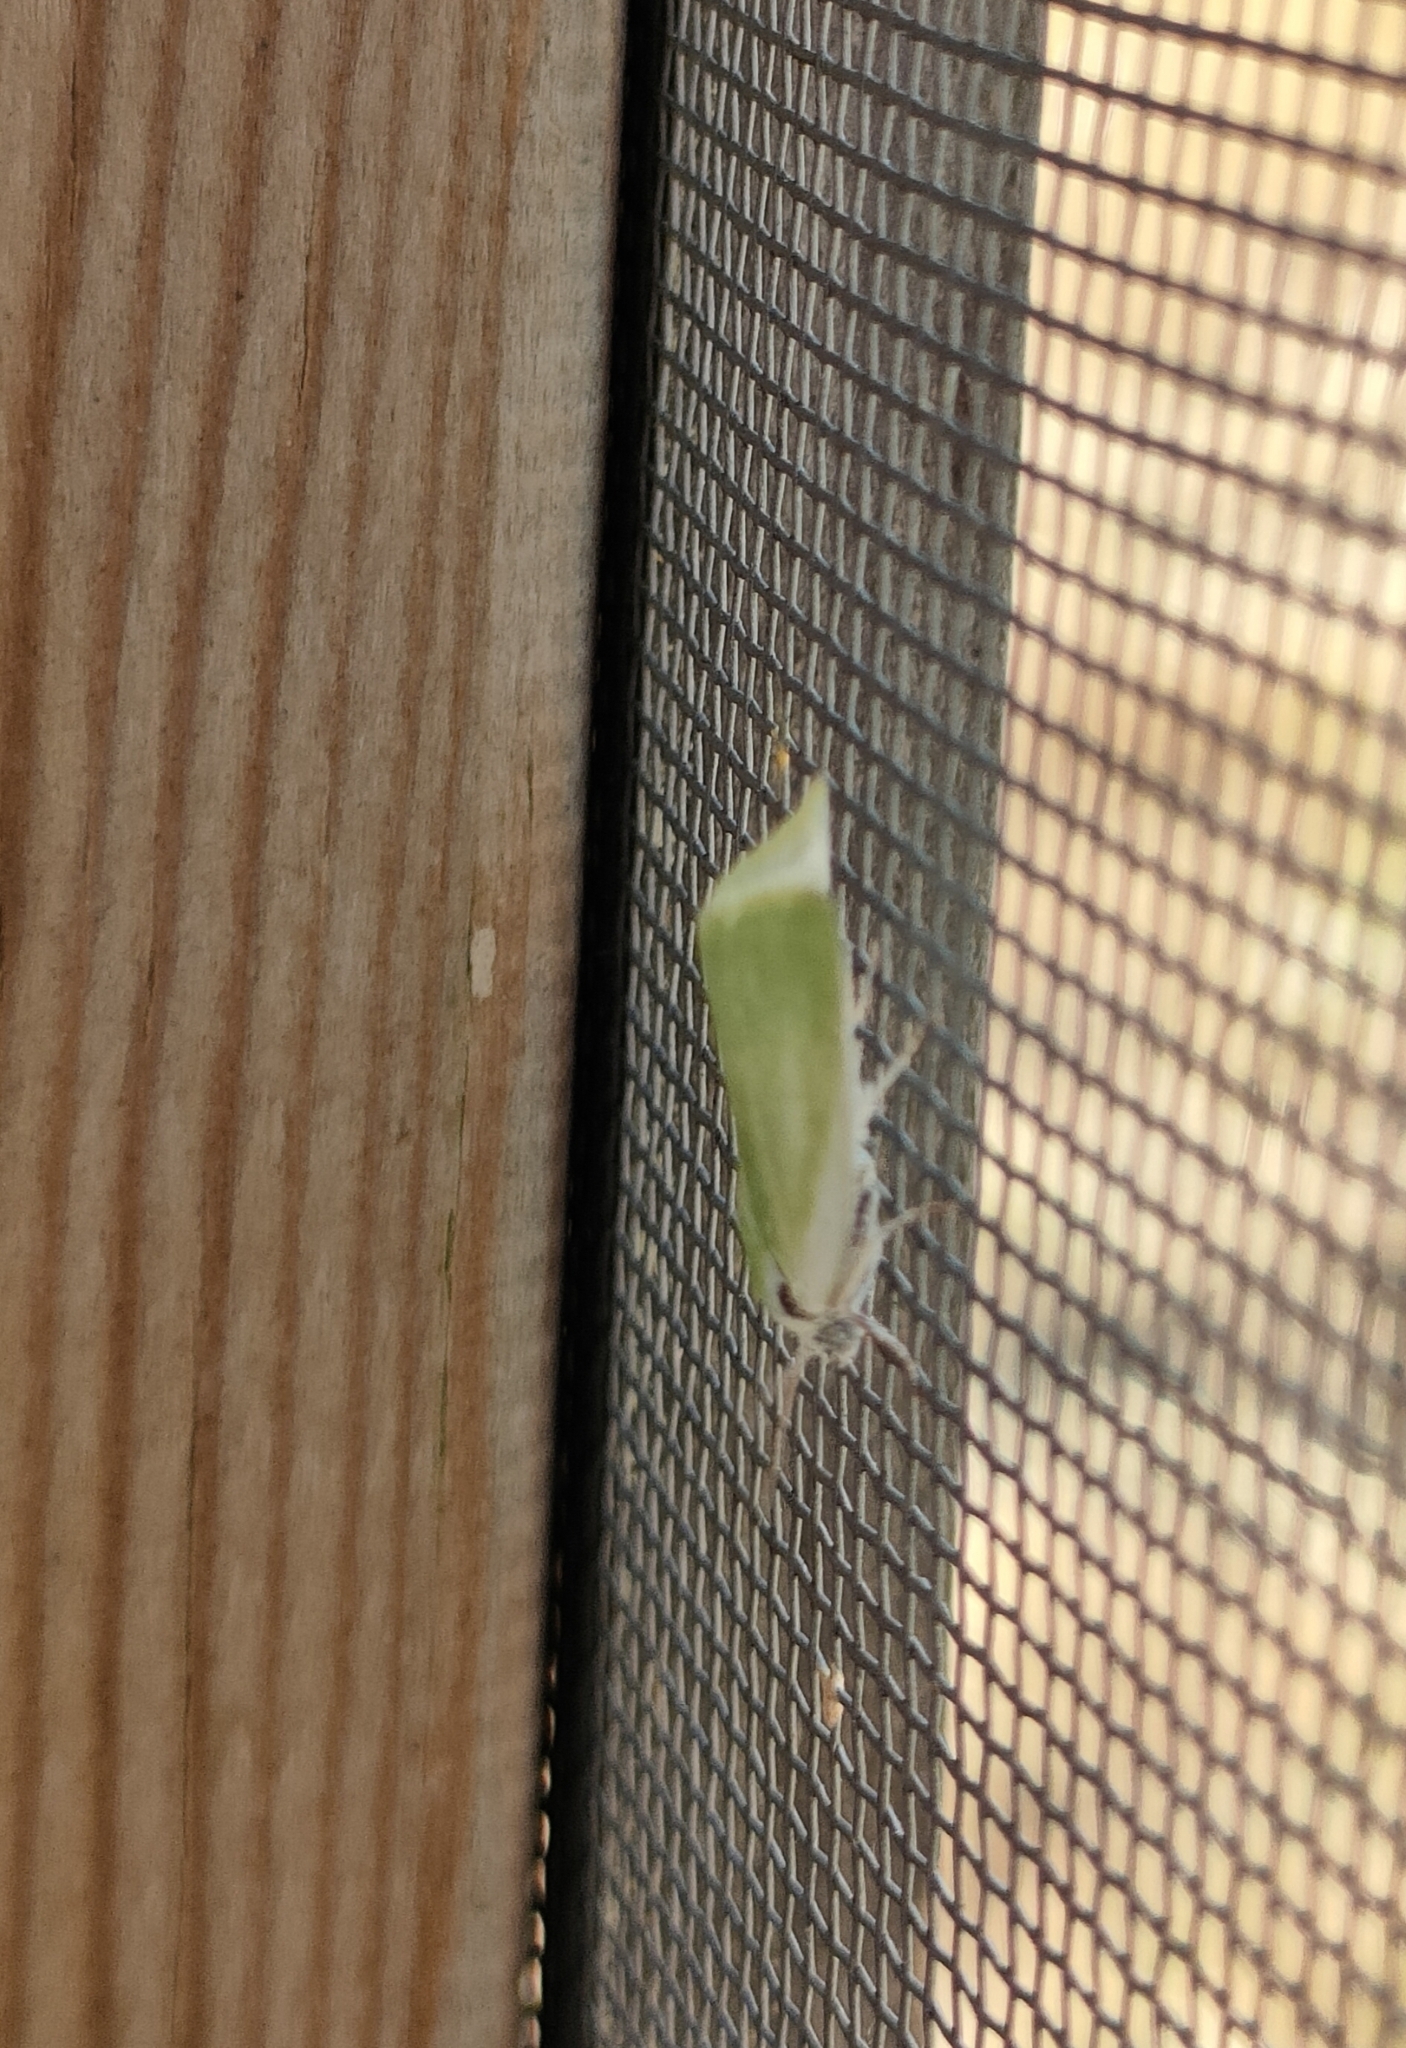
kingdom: Animalia
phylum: Arthropoda
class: Insecta
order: Lepidoptera
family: Nolidae
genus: Earias
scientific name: Earias clorana
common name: Cream-bordered green pea
